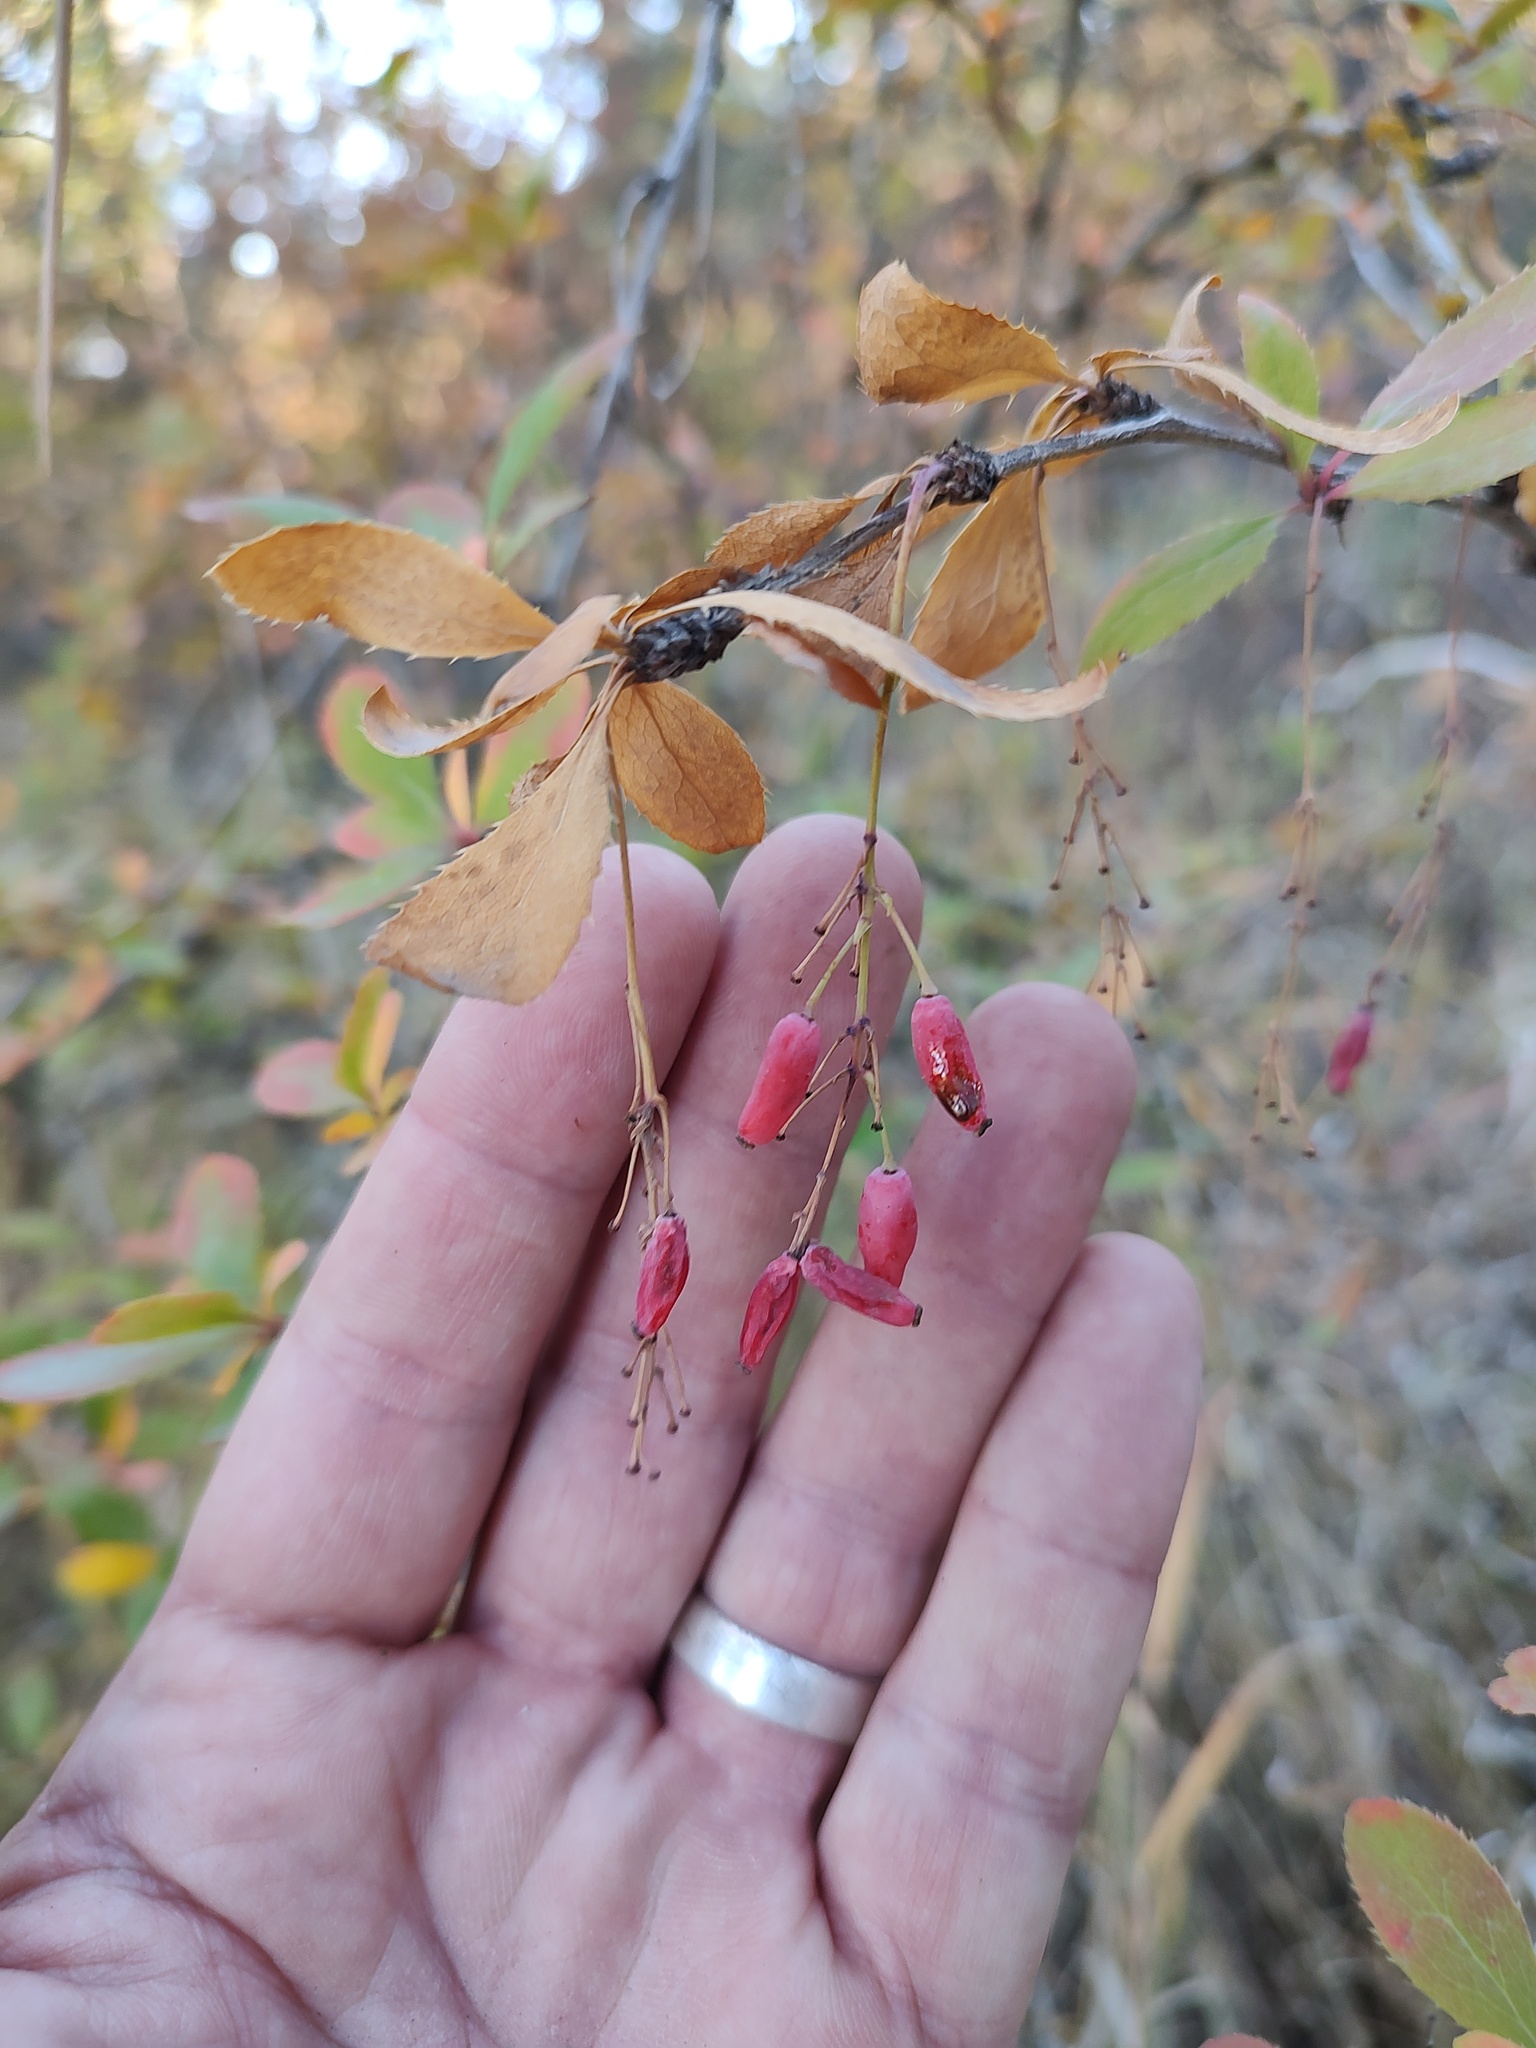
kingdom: Plantae
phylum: Tracheophyta
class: Magnoliopsida
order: Ranunculales
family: Berberidaceae
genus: Berberis
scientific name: Berberis vulgaris
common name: Barberry
